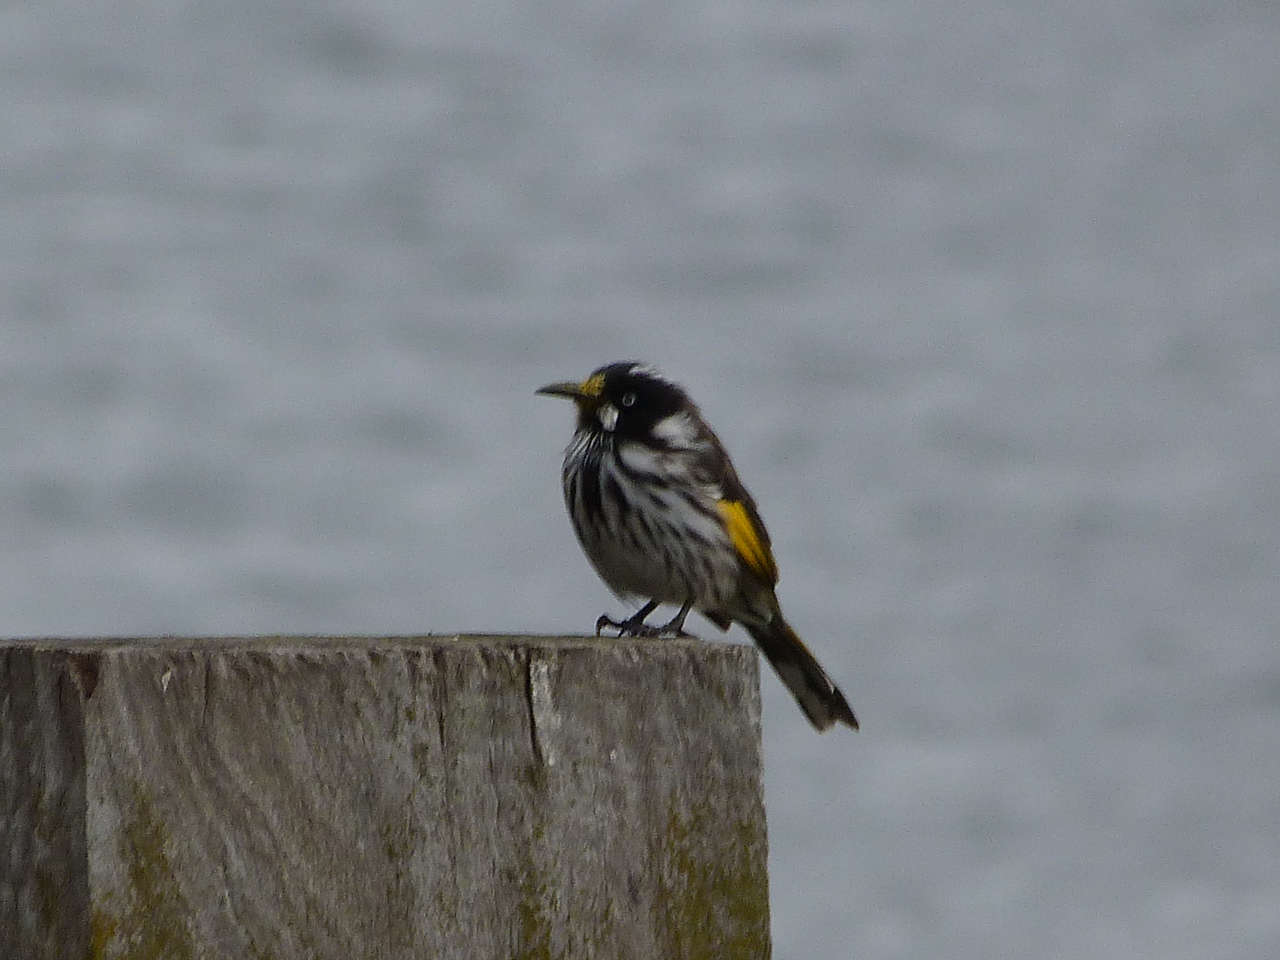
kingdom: Animalia
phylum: Chordata
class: Aves
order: Passeriformes
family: Meliphagidae
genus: Phylidonyris
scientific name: Phylidonyris novaehollandiae
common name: New holland honeyeater
